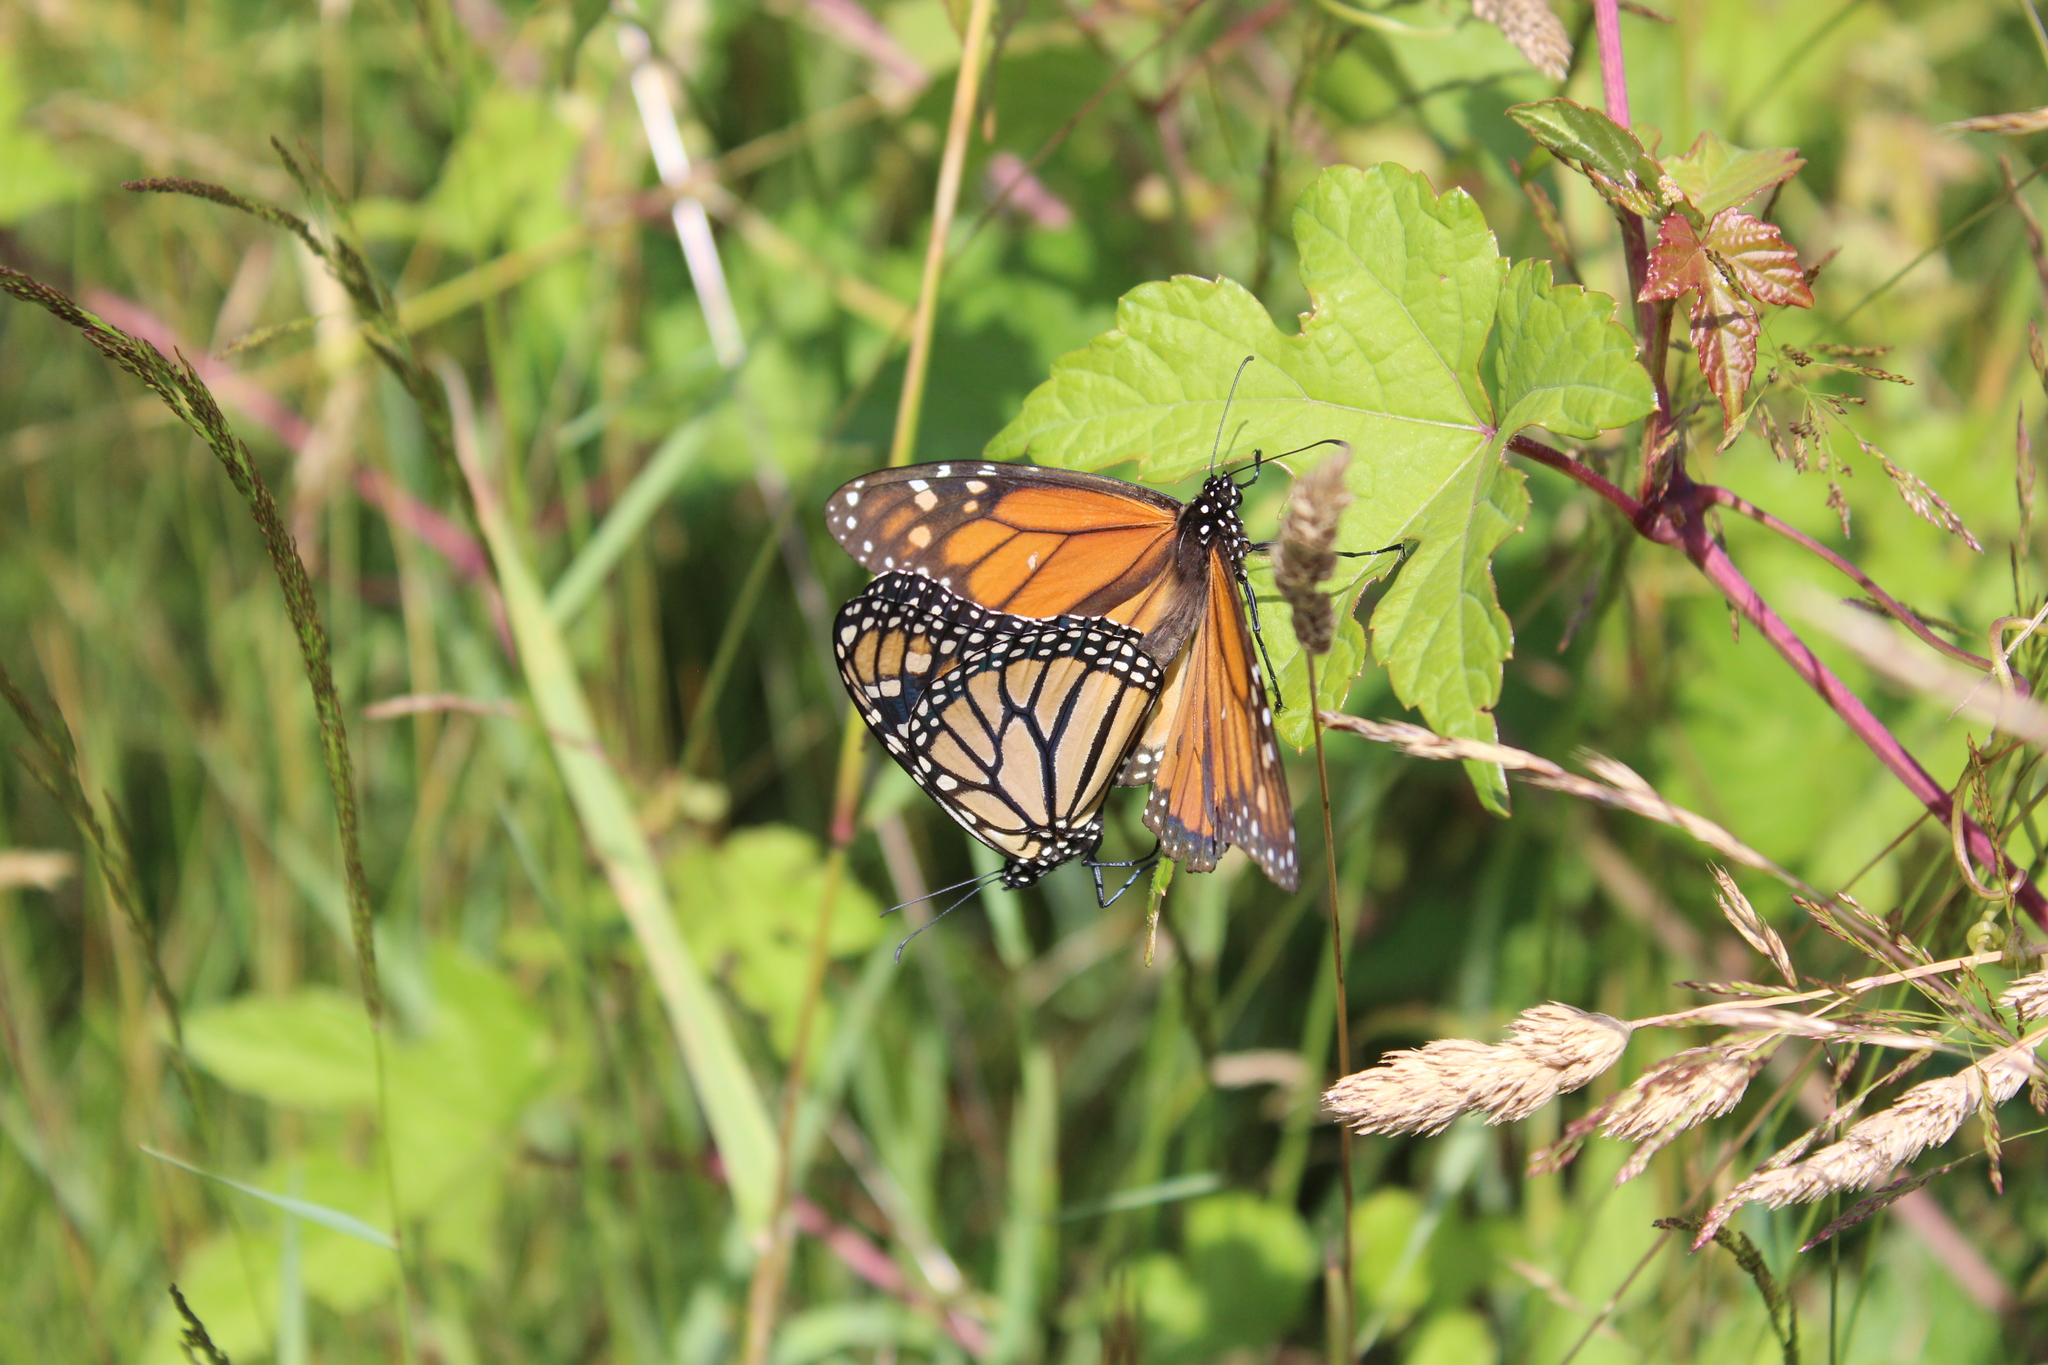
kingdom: Animalia
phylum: Arthropoda
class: Insecta
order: Lepidoptera
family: Nymphalidae
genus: Danaus
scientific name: Danaus plexippus
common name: Monarch
